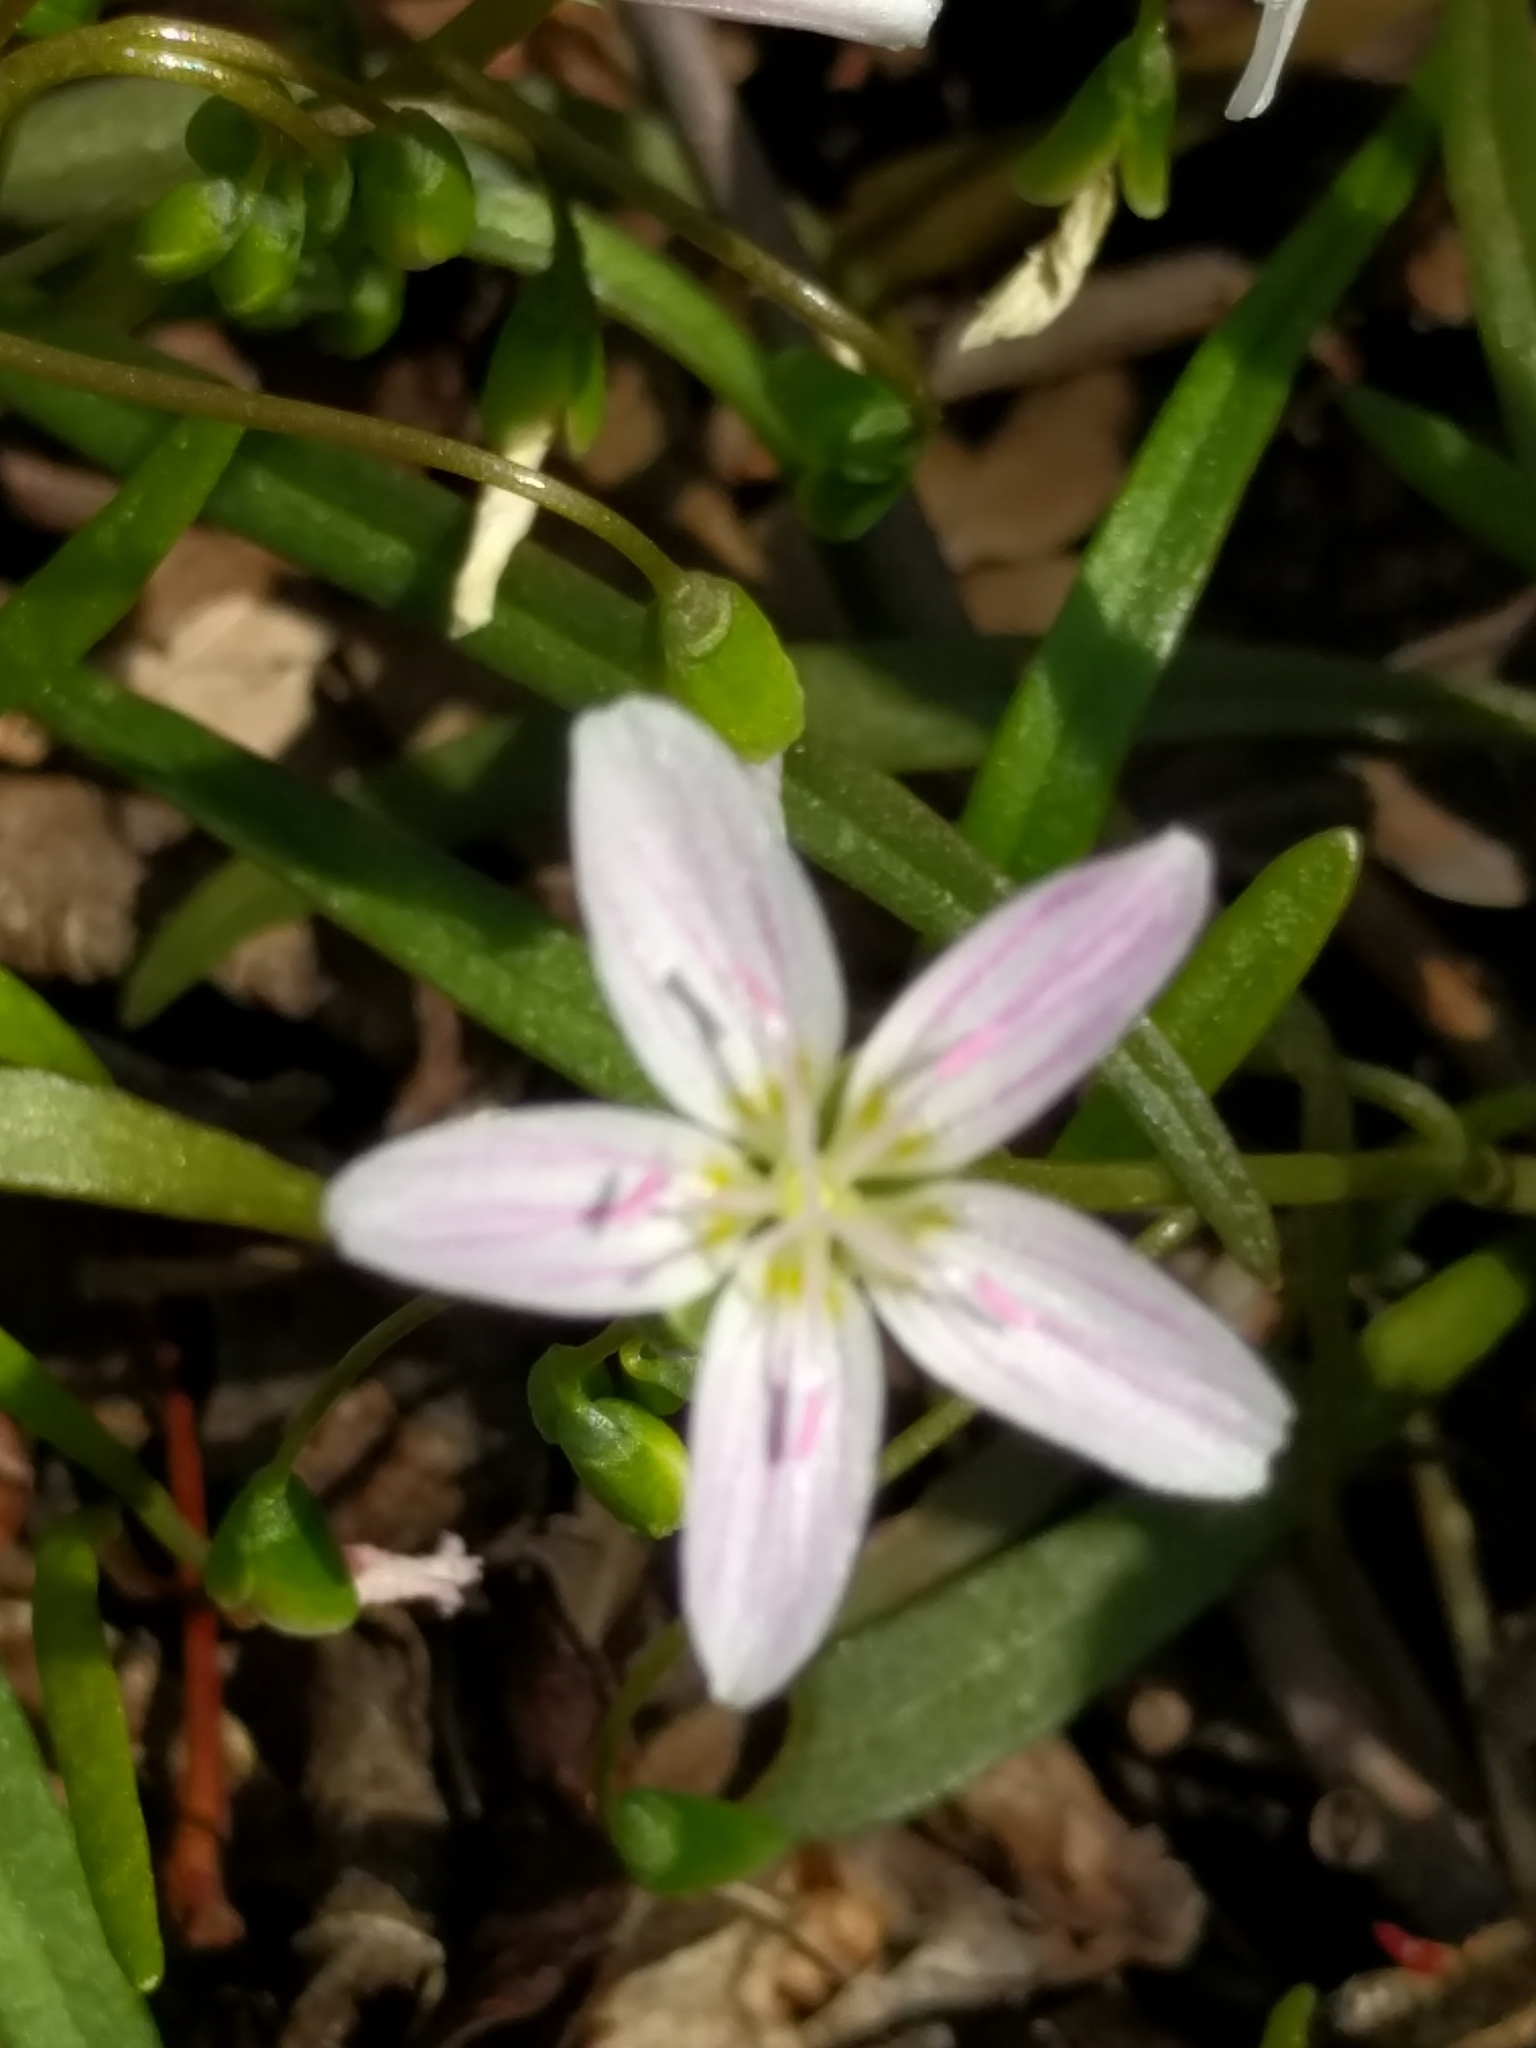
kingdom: Plantae
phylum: Tracheophyta
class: Magnoliopsida
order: Caryophyllales
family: Montiaceae
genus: Claytonia
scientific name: Claytonia virginica
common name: Virginia springbeauty
